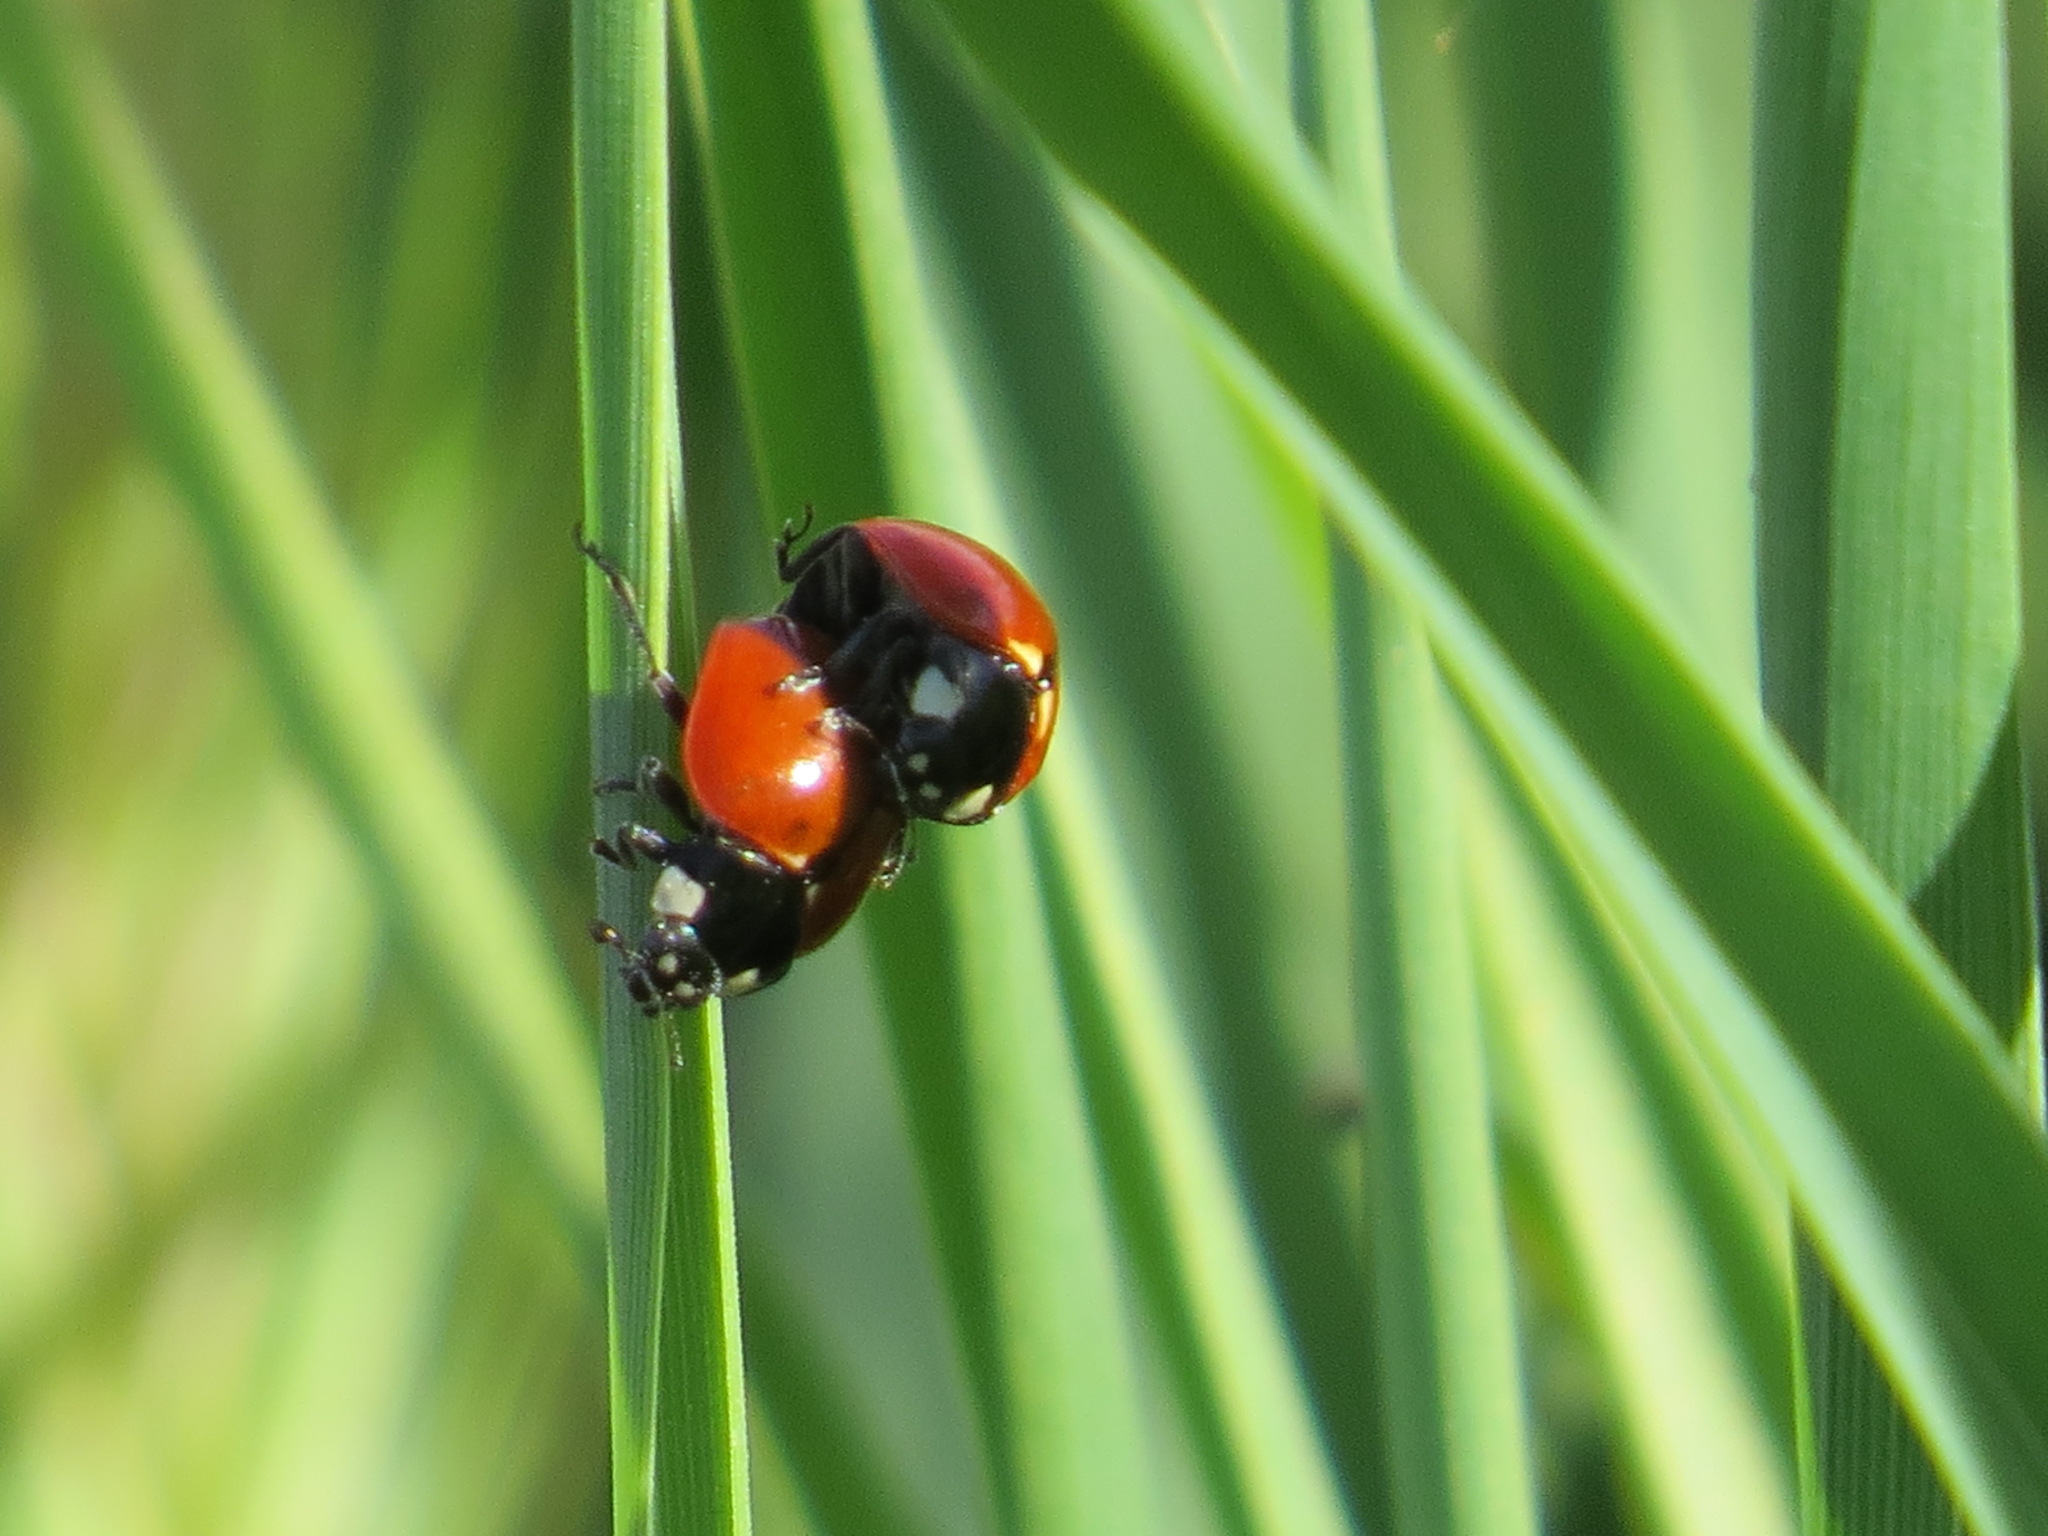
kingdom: Animalia
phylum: Arthropoda
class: Insecta
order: Coleoptera
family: Coccinellidae
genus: Coccinella
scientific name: Coccinella californica
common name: Lady beetle
